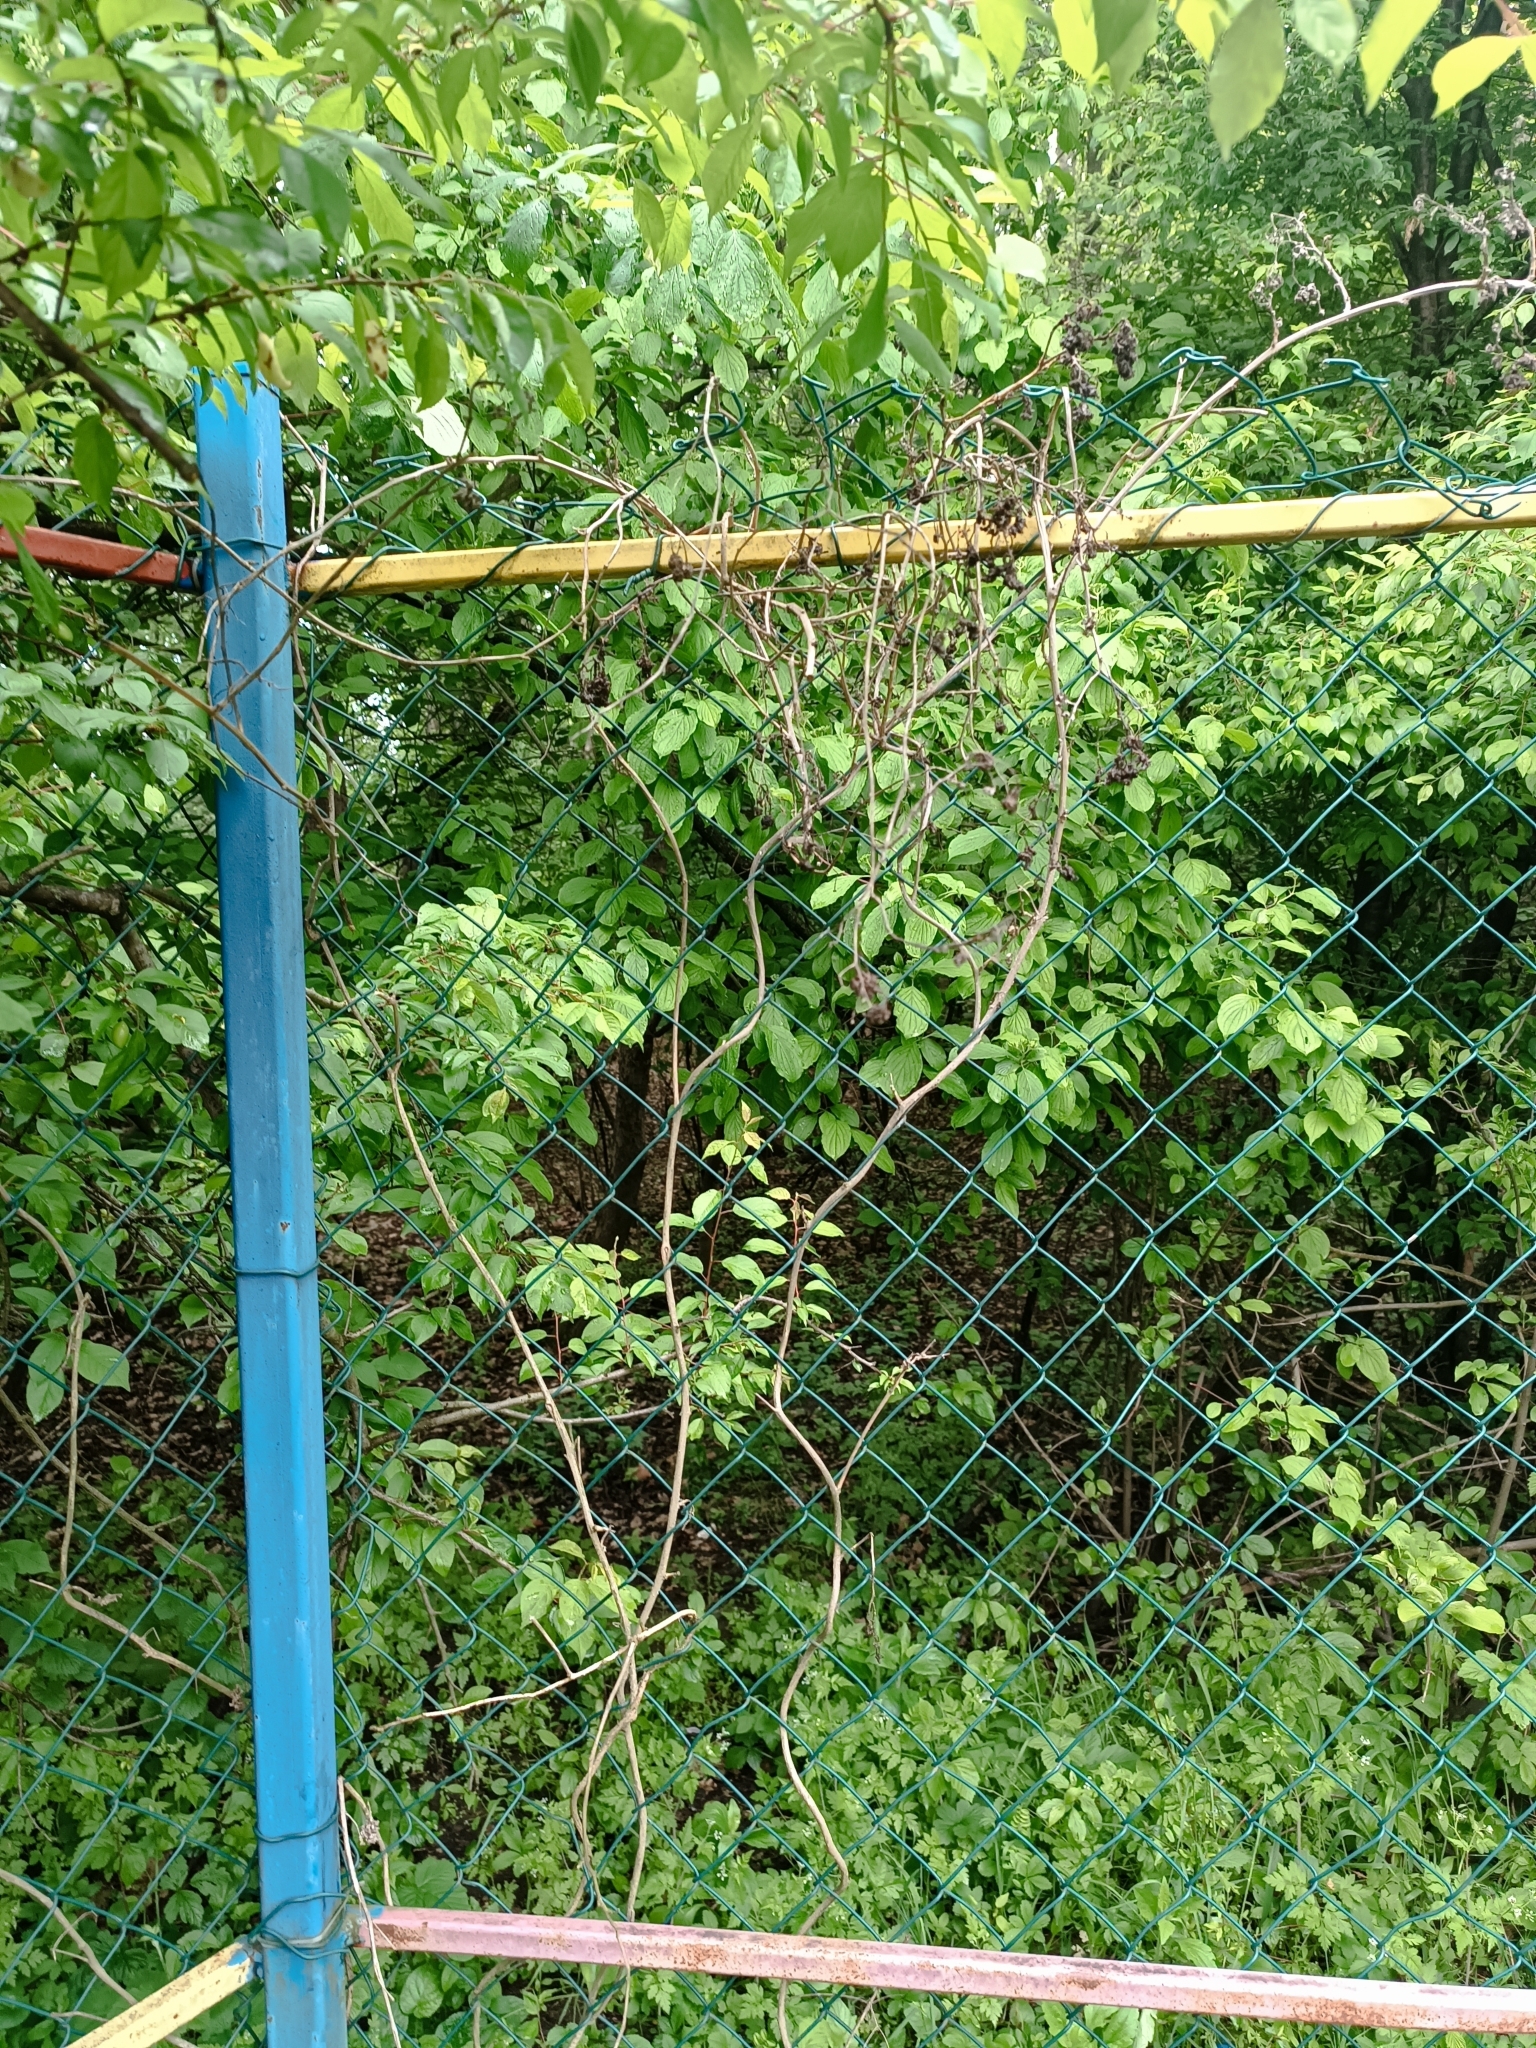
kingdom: Plantae
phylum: Tracheophyta
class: Magnoliopsida
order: Solanales
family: Solanaceae
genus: Solanum
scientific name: Solanum dulcamara
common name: Climbing nightshade
